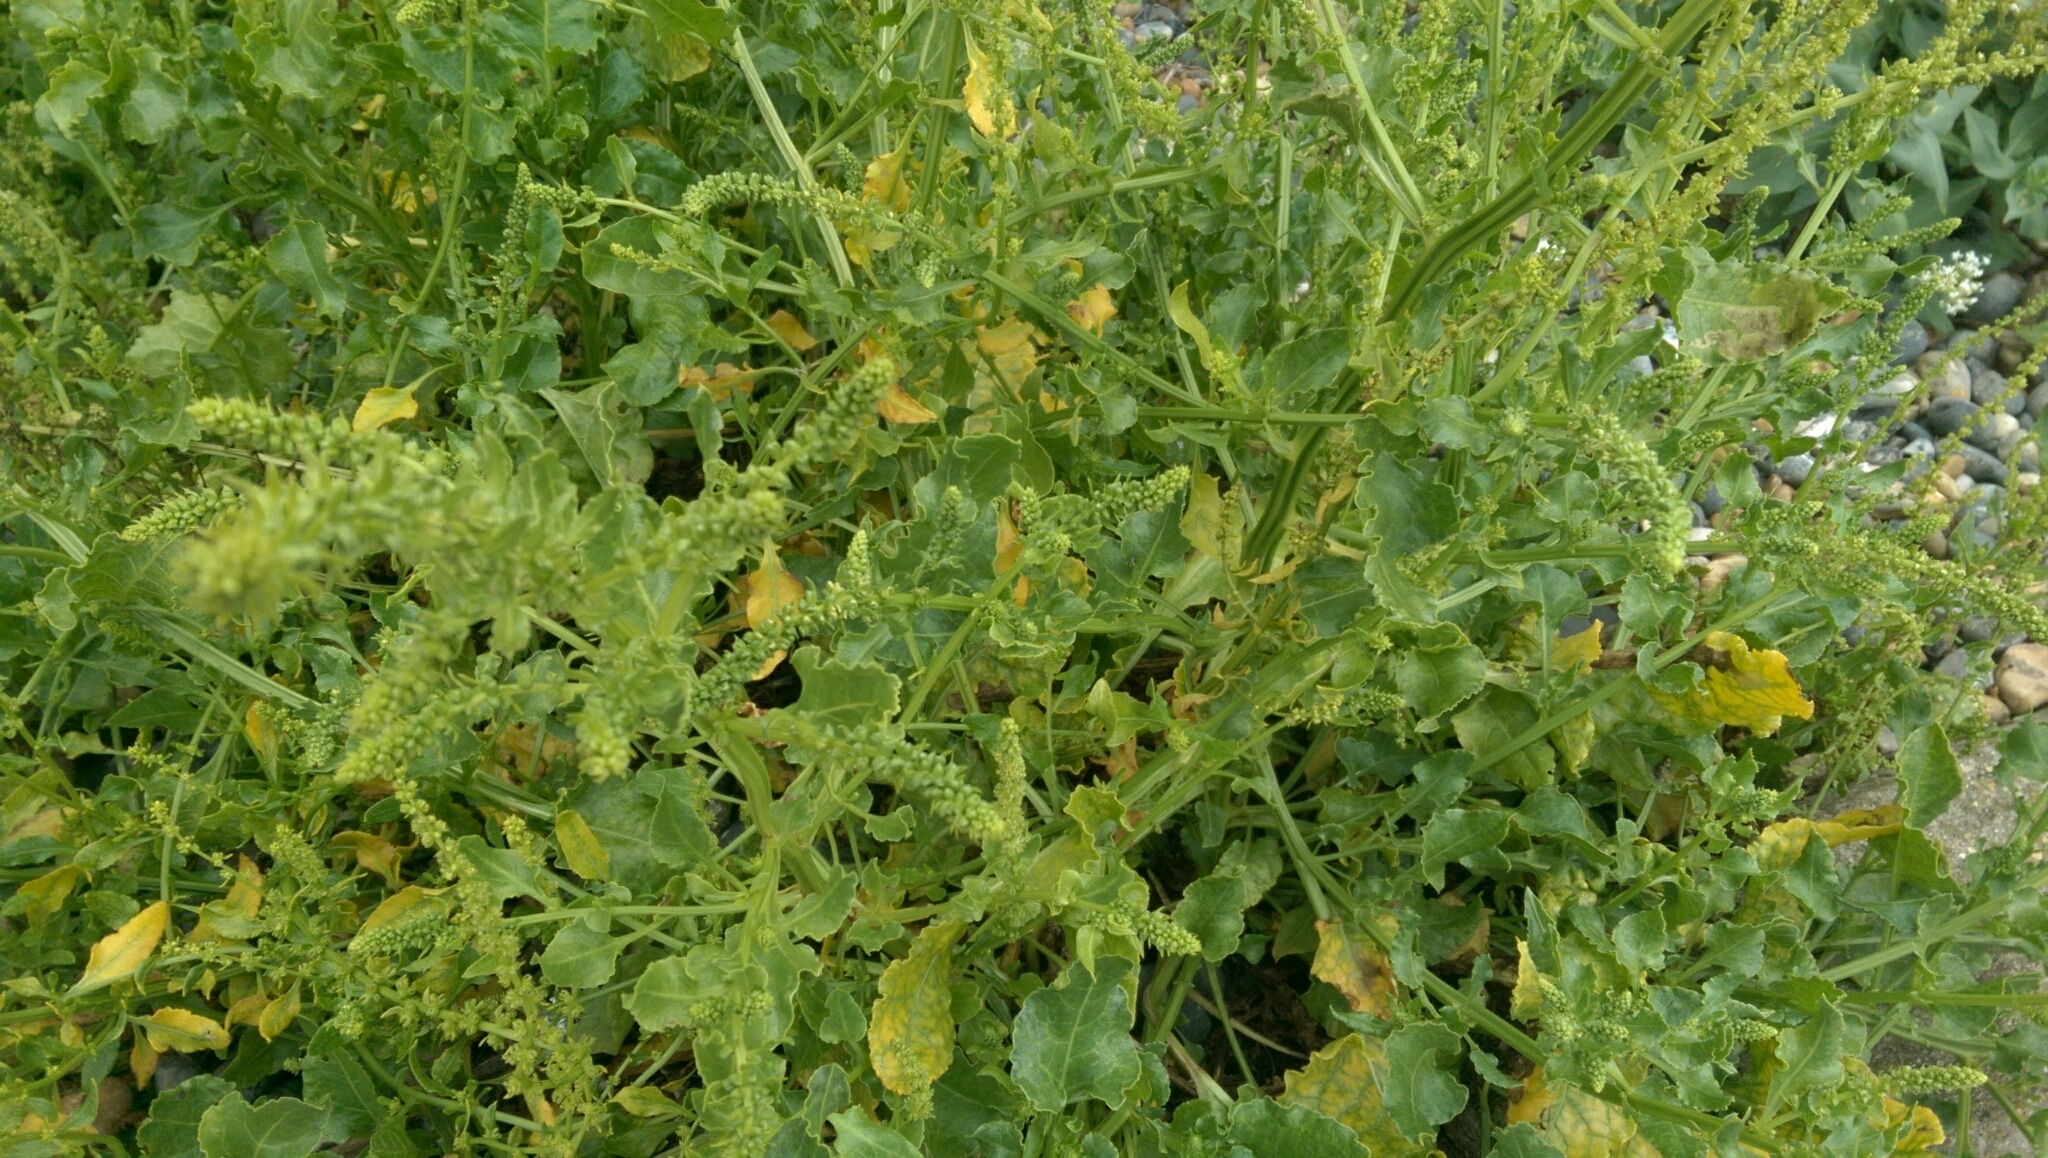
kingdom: Plantae
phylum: Tracheophyta
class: Magnoliopsida
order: Caryophyllales
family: Amaranthaceae
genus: Beta
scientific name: Beta vulgaris
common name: Beet
